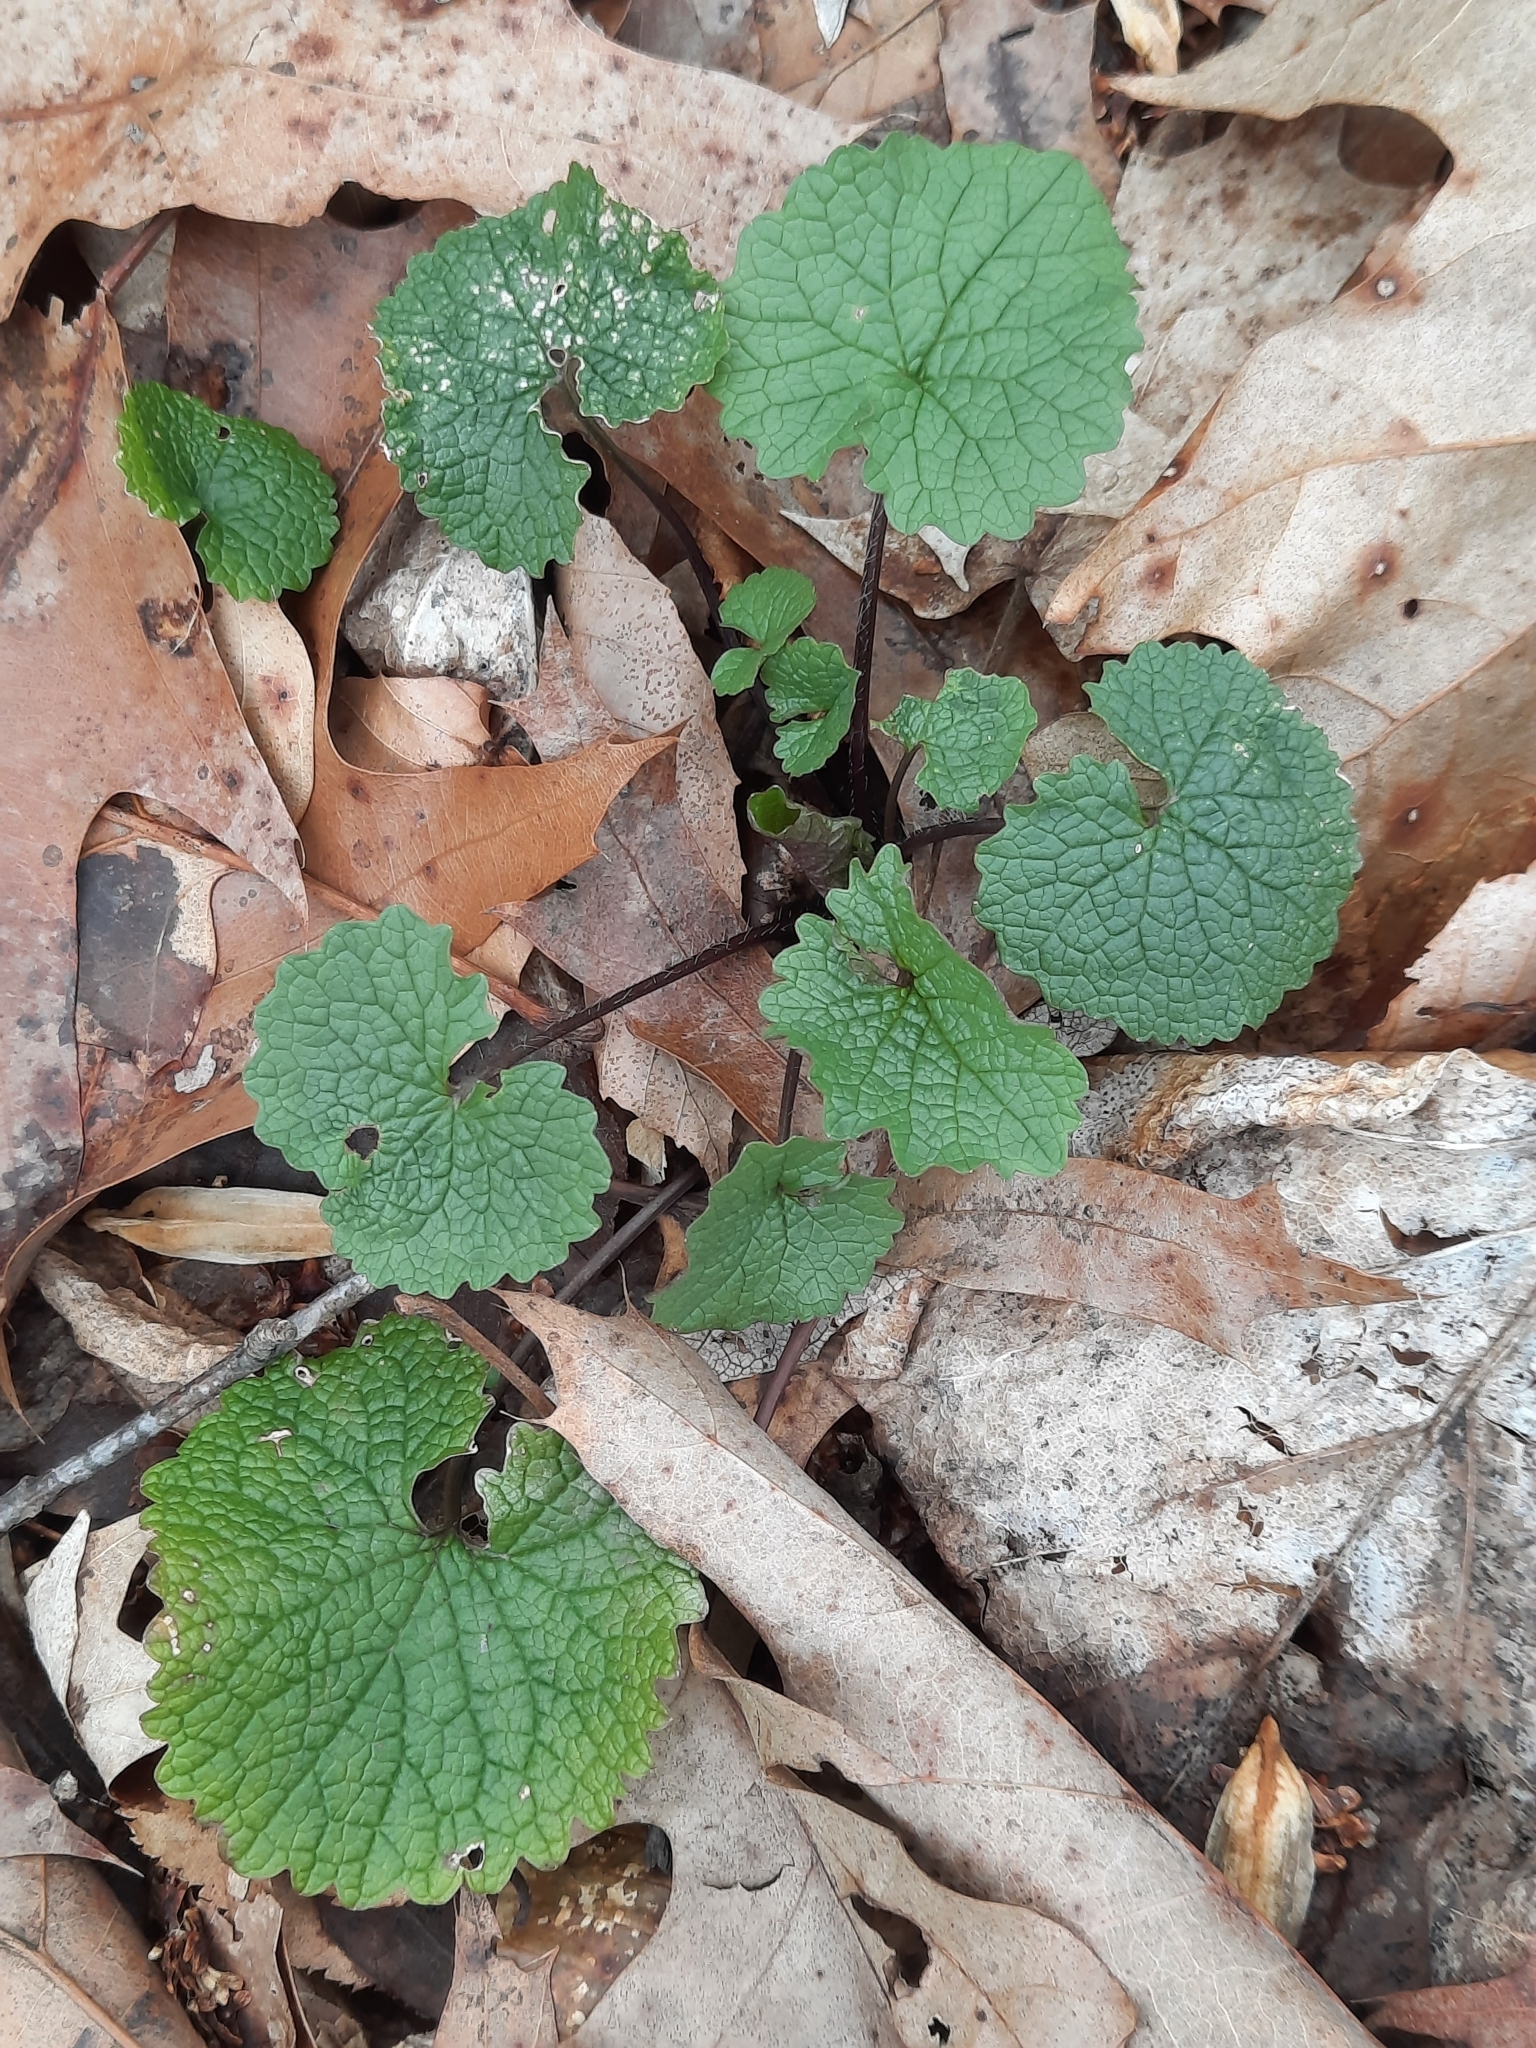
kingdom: Plantae
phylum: Tracheophyta
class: Magnoliopsida
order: Brassicales
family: Brassicaceae
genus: Alliaria
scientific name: Alliaria petiolata
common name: Garlic mustard
